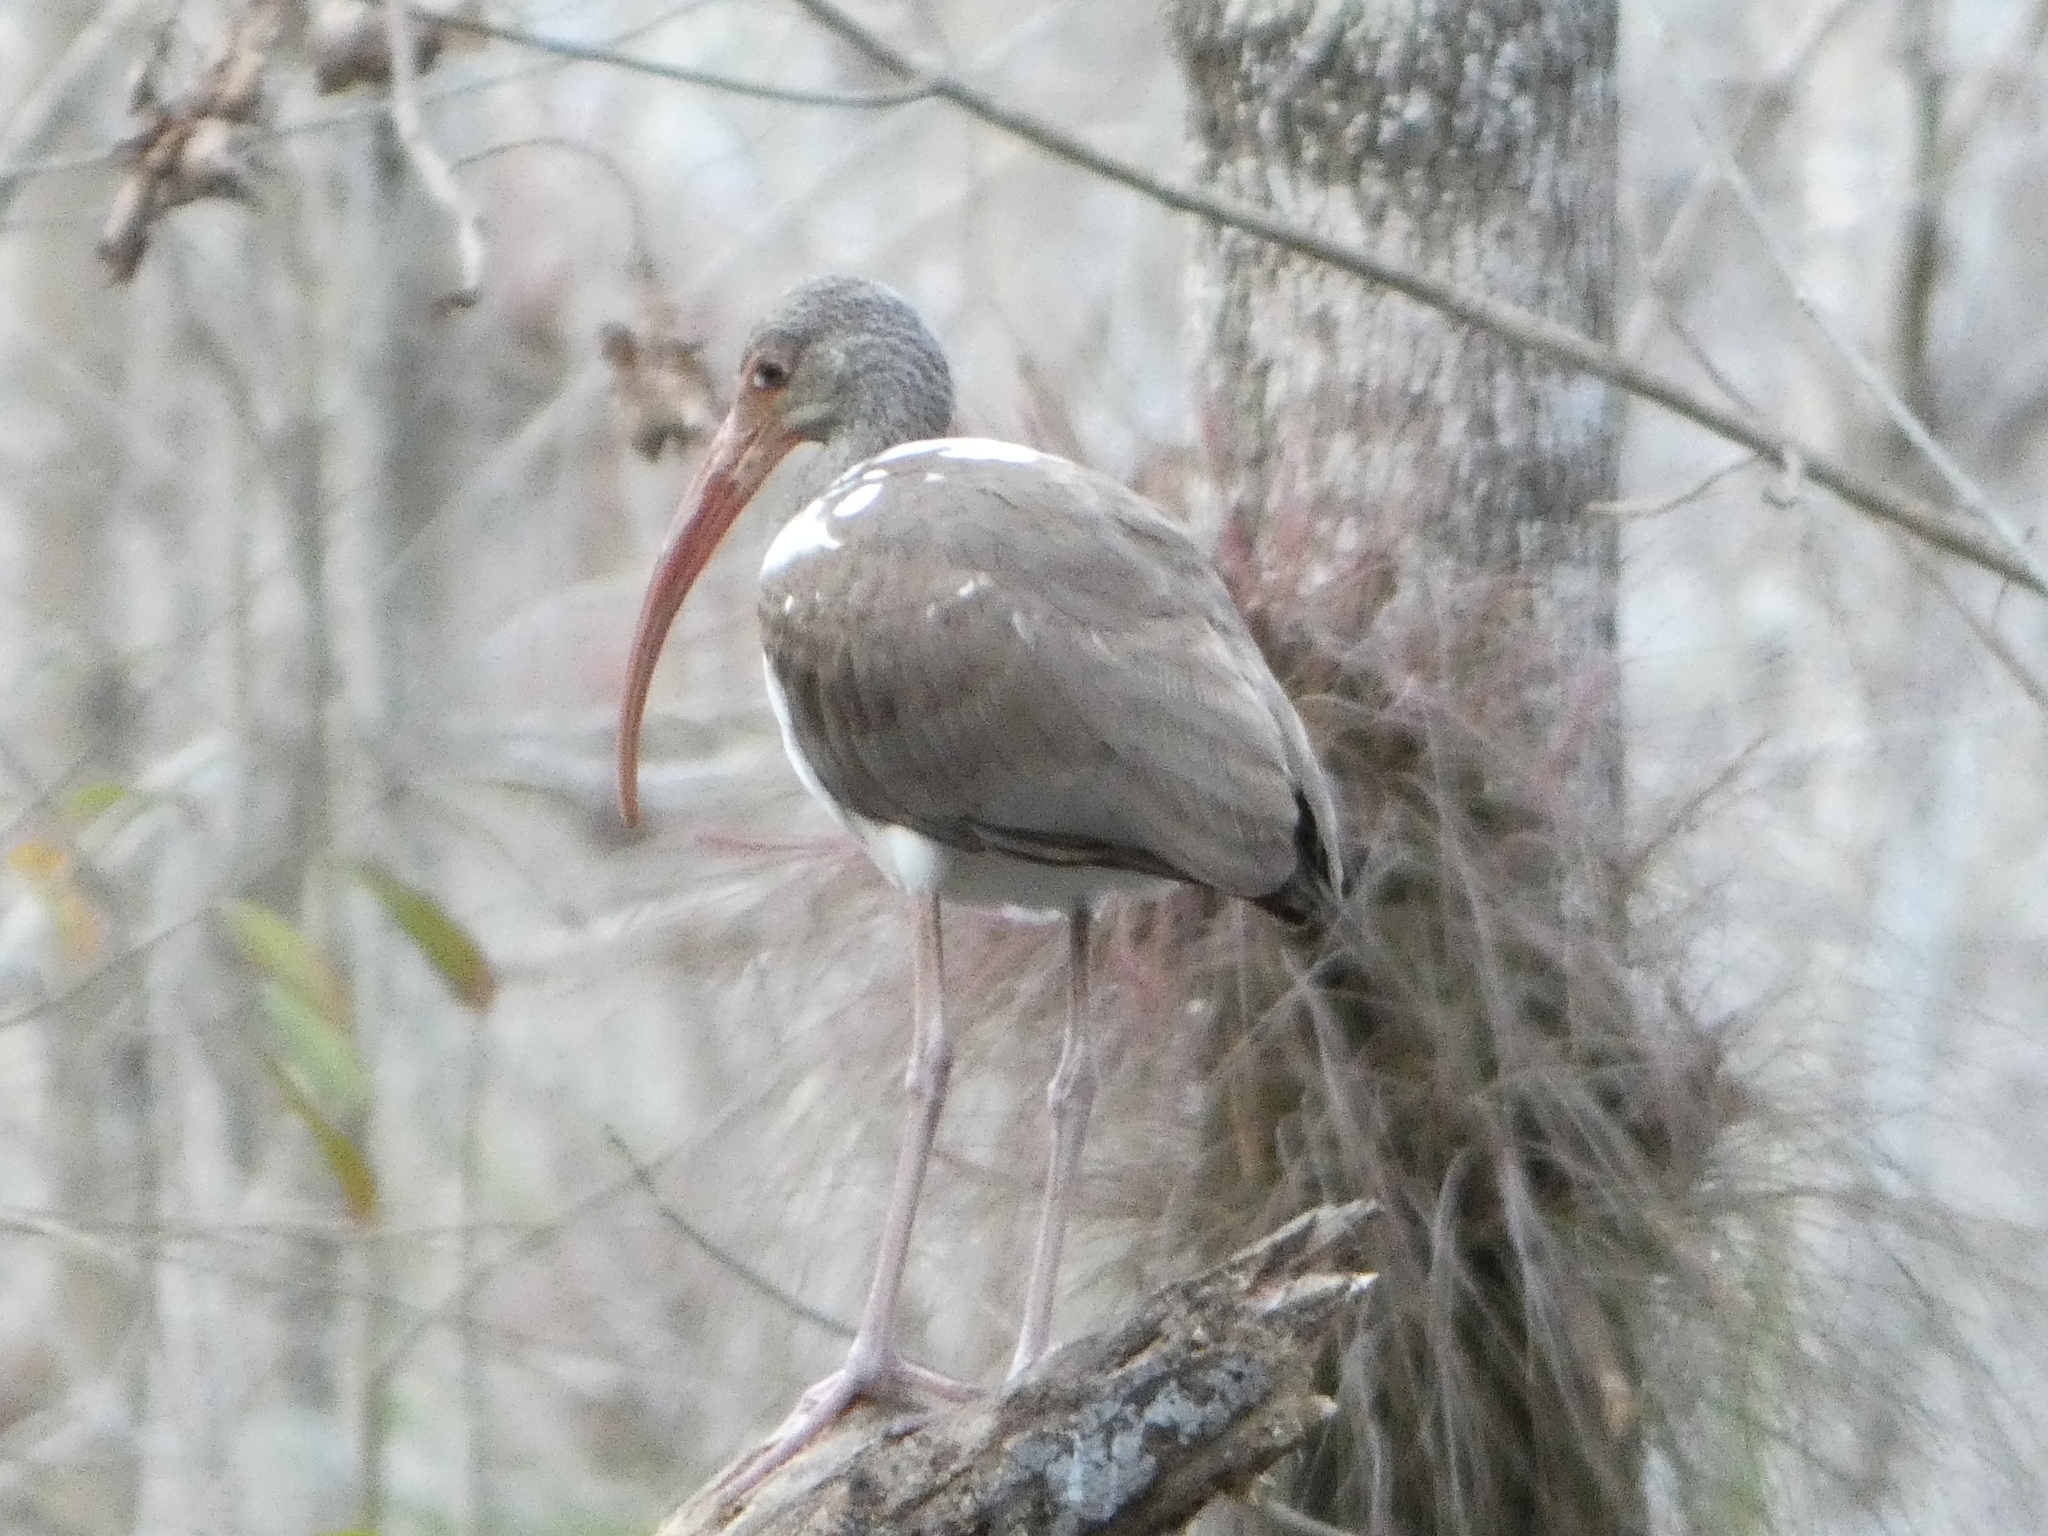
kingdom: Animalia
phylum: Chordata
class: Aves
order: Pelecaniformes
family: Threskiornithidae
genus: Eudocimus
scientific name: Eudocimus albus
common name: White ibis
